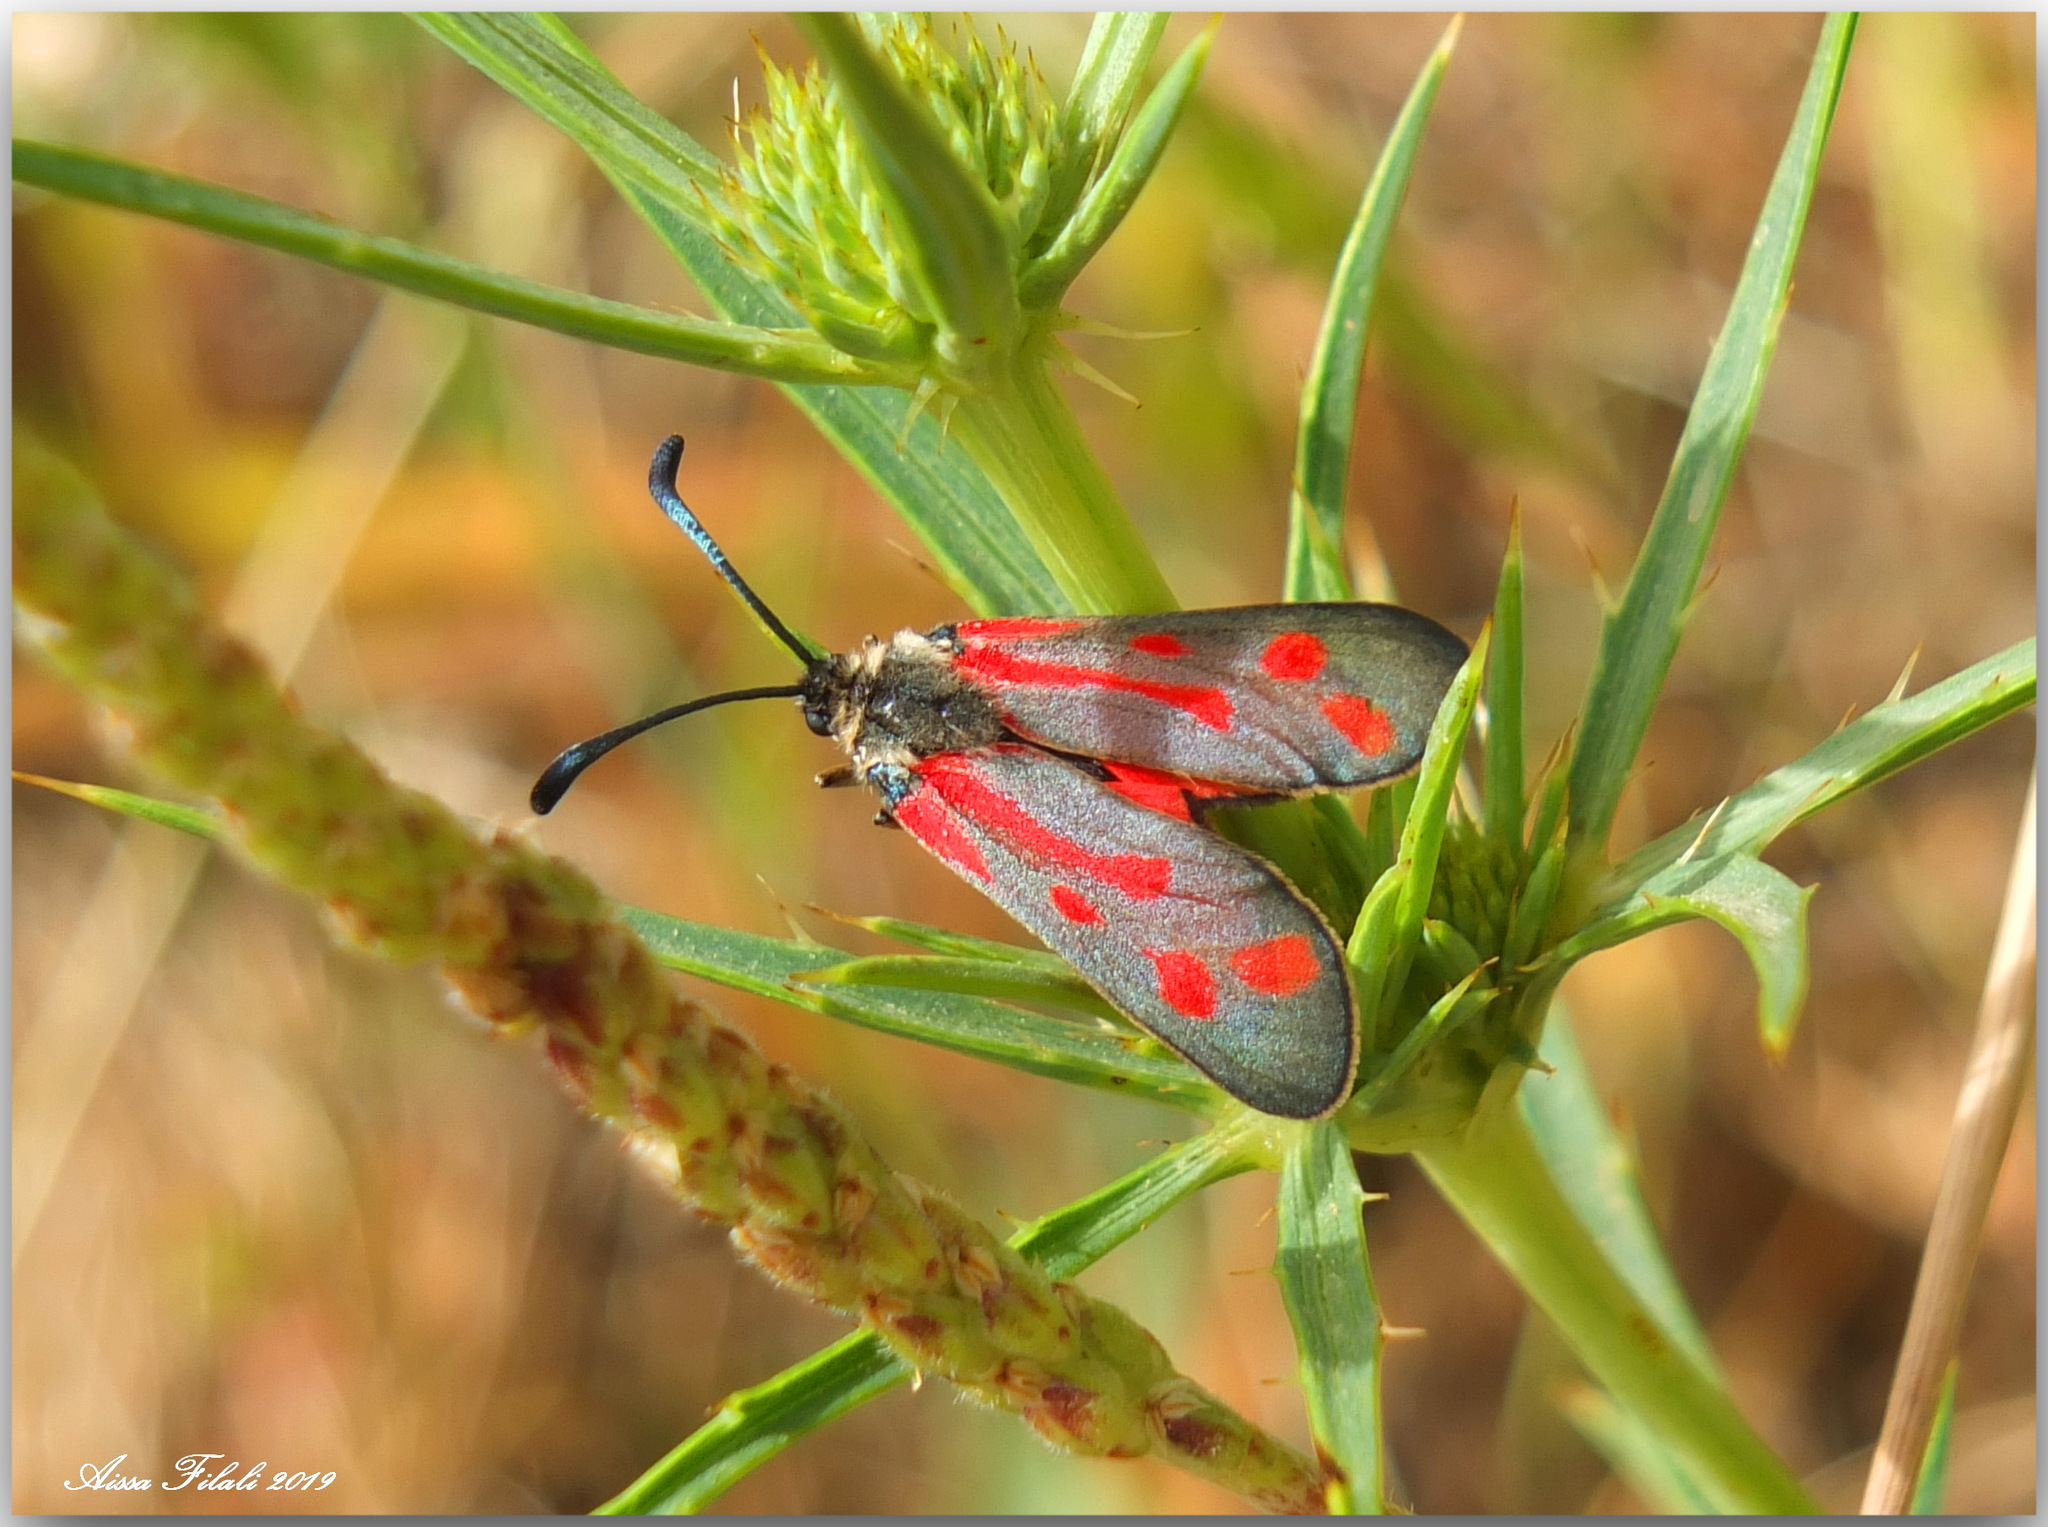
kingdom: Animalia
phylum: Arthropoda
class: Insecta
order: Lepidoptera
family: Zygaenidae
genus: Zygaena
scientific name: Zygaena favonia
